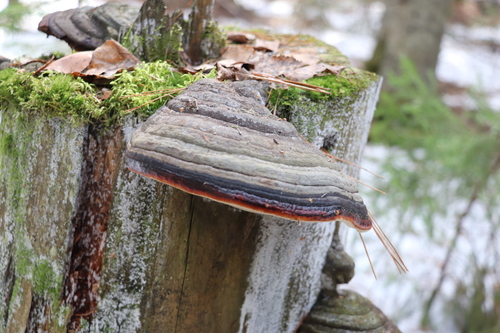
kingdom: Fungi
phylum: Basidiomycota
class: Agaricomycetes
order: Polyporales
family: Fomitopsidaceae
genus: Fomitopsis
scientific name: Fomitopsis pinicola
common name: Red-belted bracket
